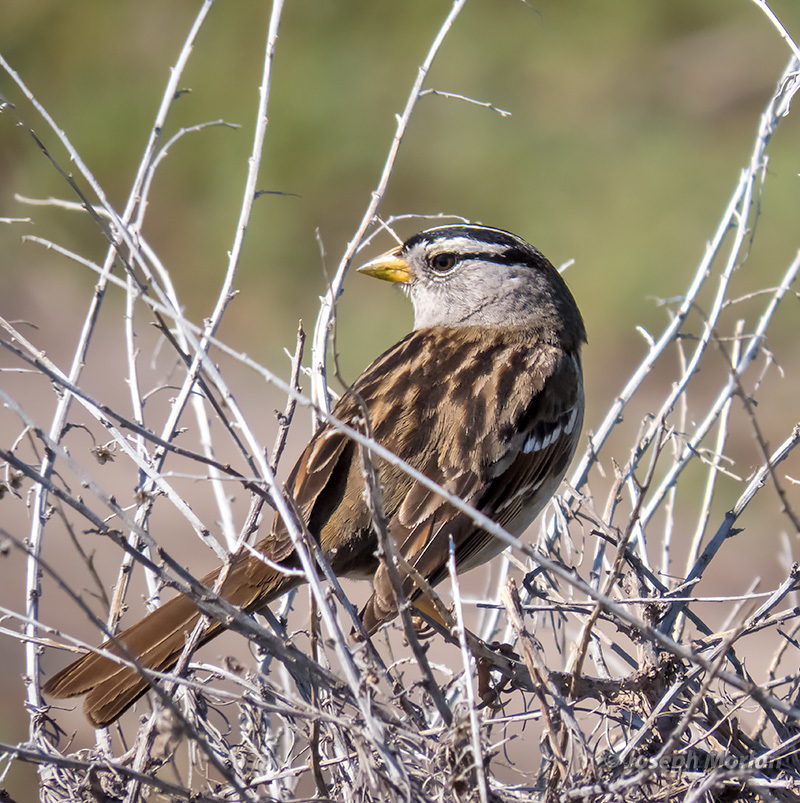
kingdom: Animalia
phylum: Chordata
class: Aves
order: Passeriformes
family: Passerellidae
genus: Zonotrichia
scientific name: Zonotrichia leucophrys
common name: White-crowned sparrow
